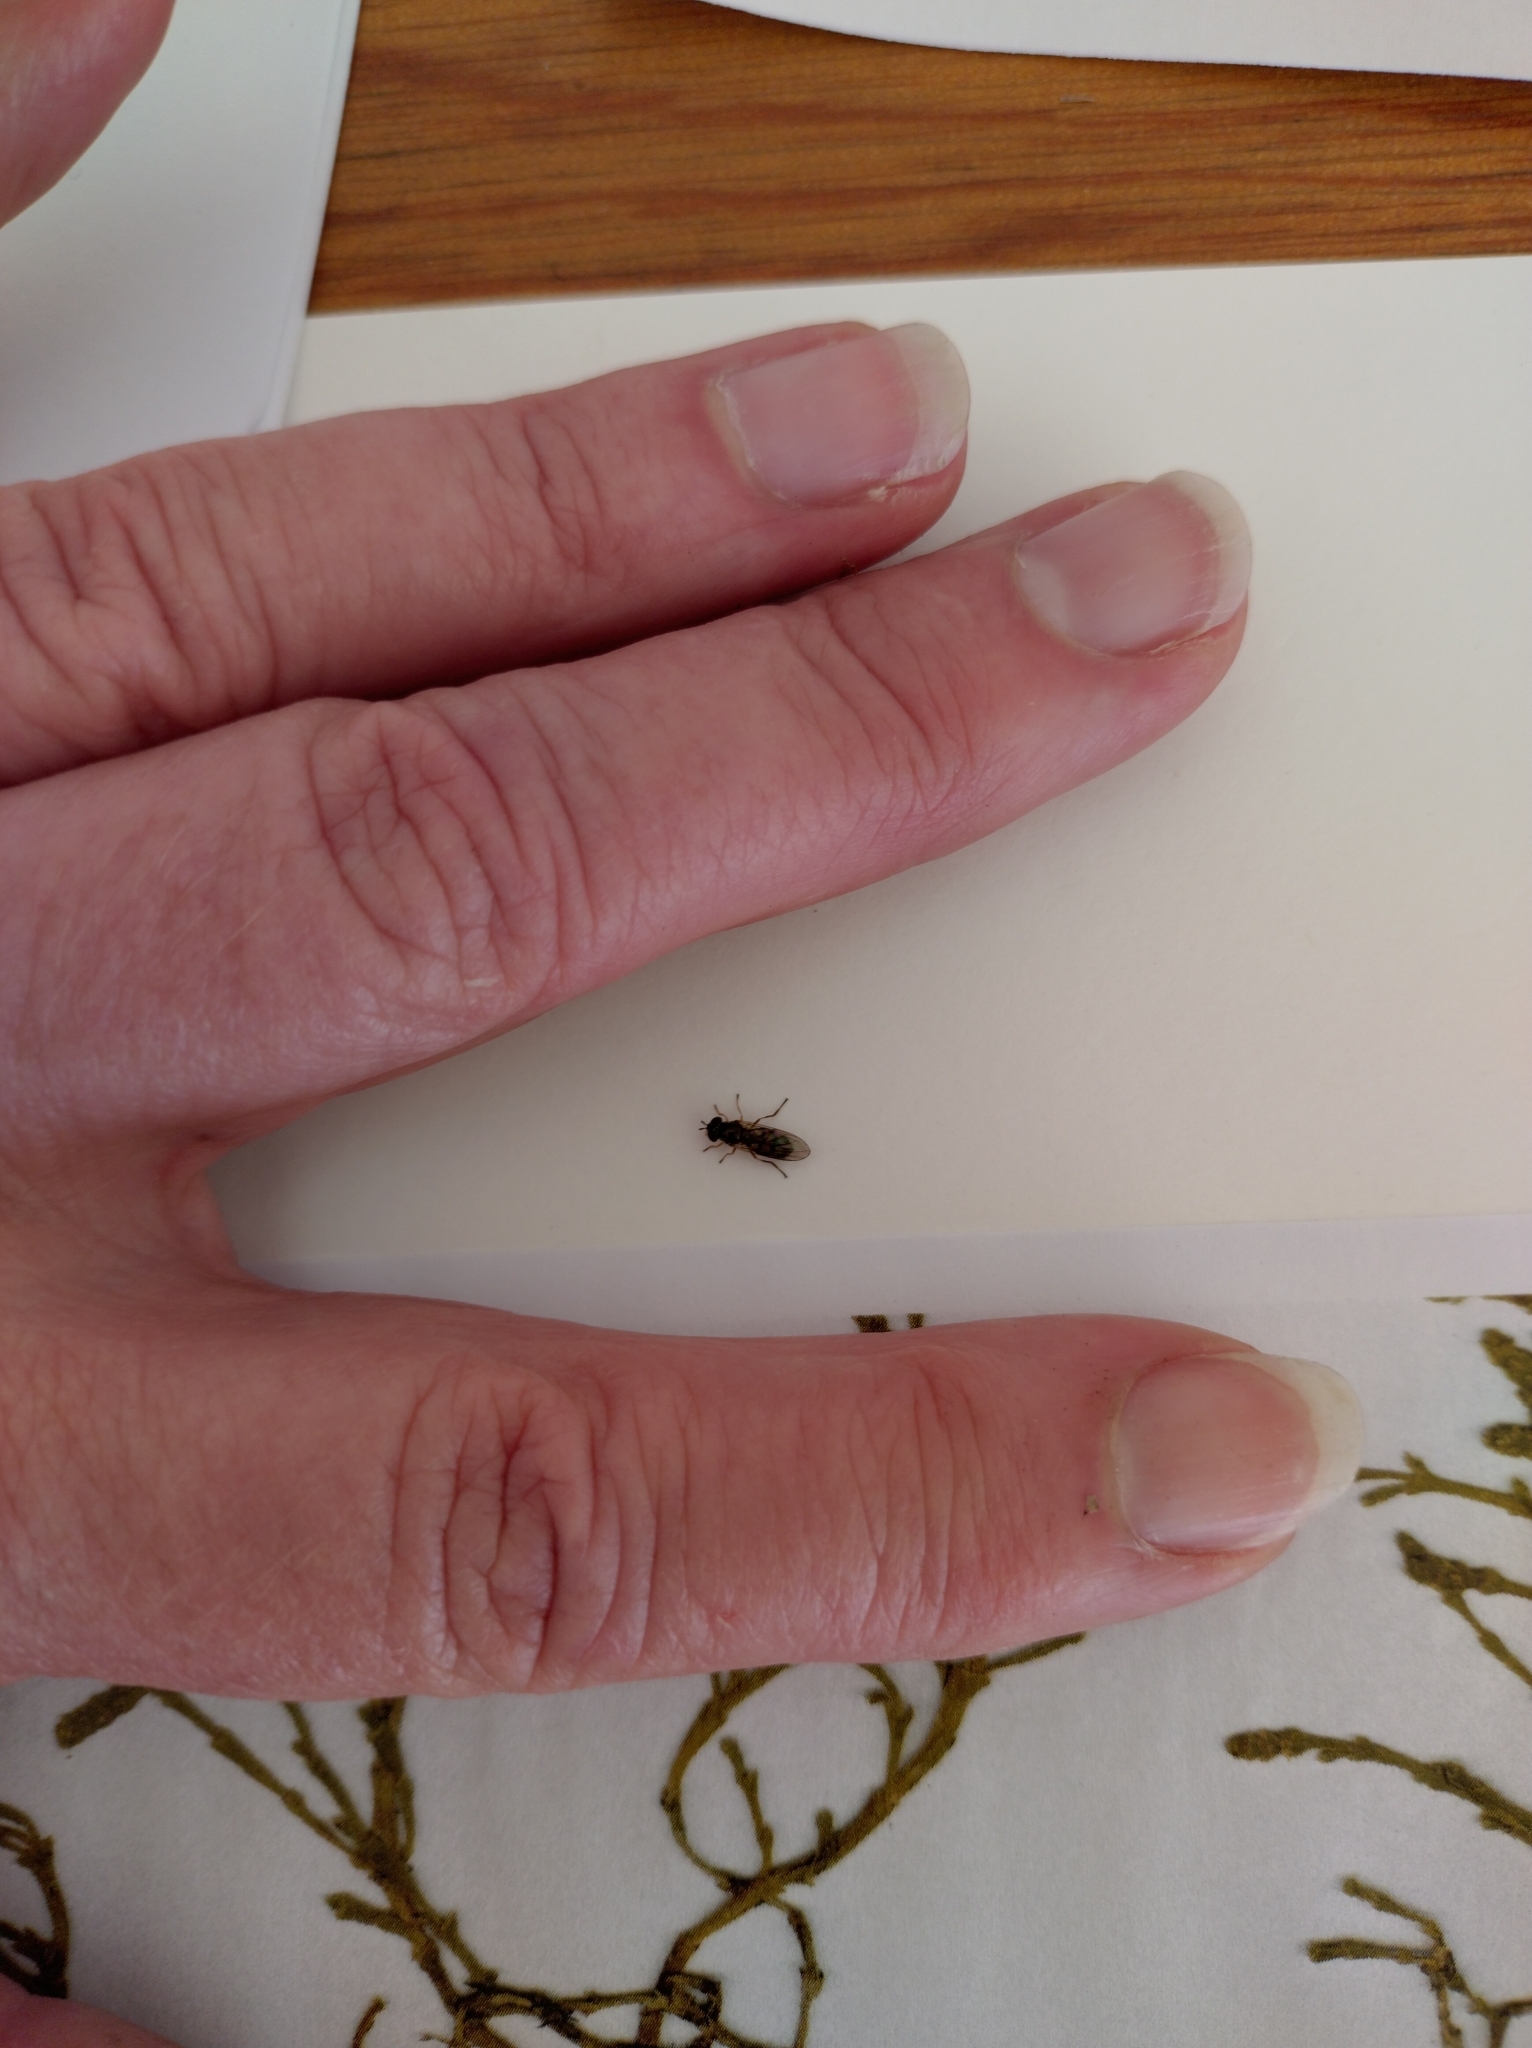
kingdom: Animalia
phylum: Arthropoda
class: Insecta
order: Diptera
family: Syrphidae
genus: Melanostoma
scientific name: Melanostoma fasciatum
